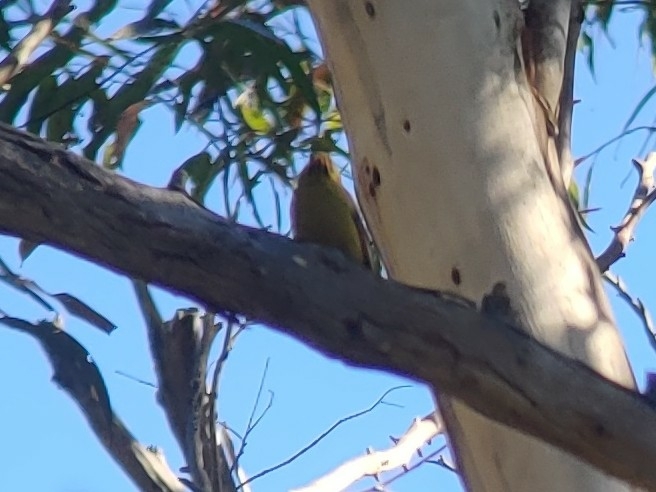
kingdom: Animalia
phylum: Chordata
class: Aves
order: Passeriformes
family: Meliphagidae
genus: Manorina
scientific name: Manorina melanophrys
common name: Bell miner
